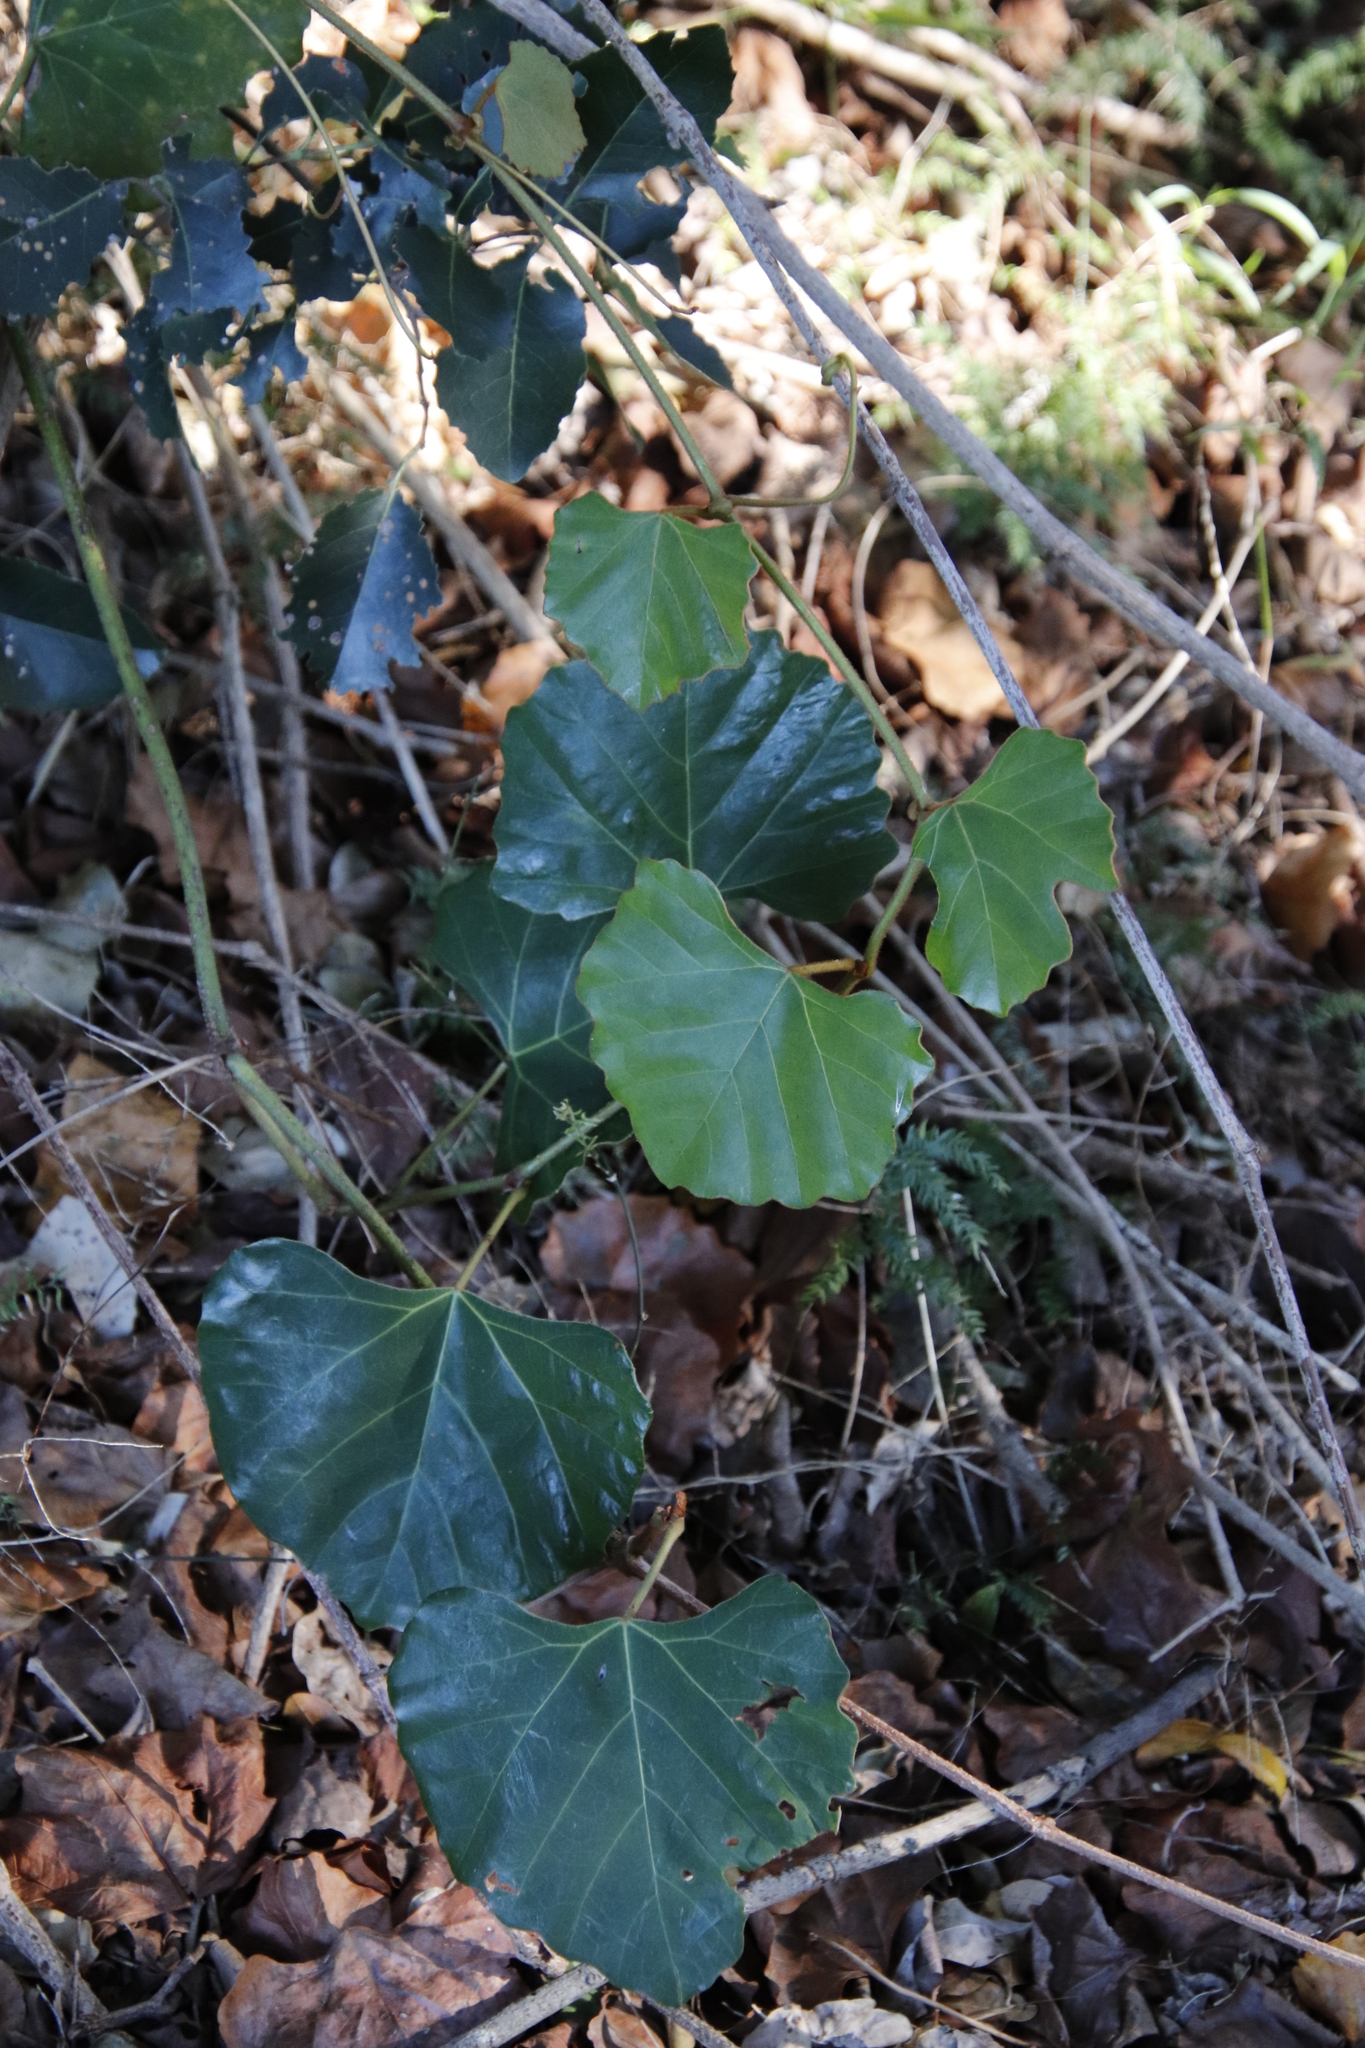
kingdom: Plantae
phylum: Tracheophyta
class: Magnoliopsida
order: Vitales
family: Vitaceae
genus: Rhoicissus
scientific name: Rhoicissus tomentosa
